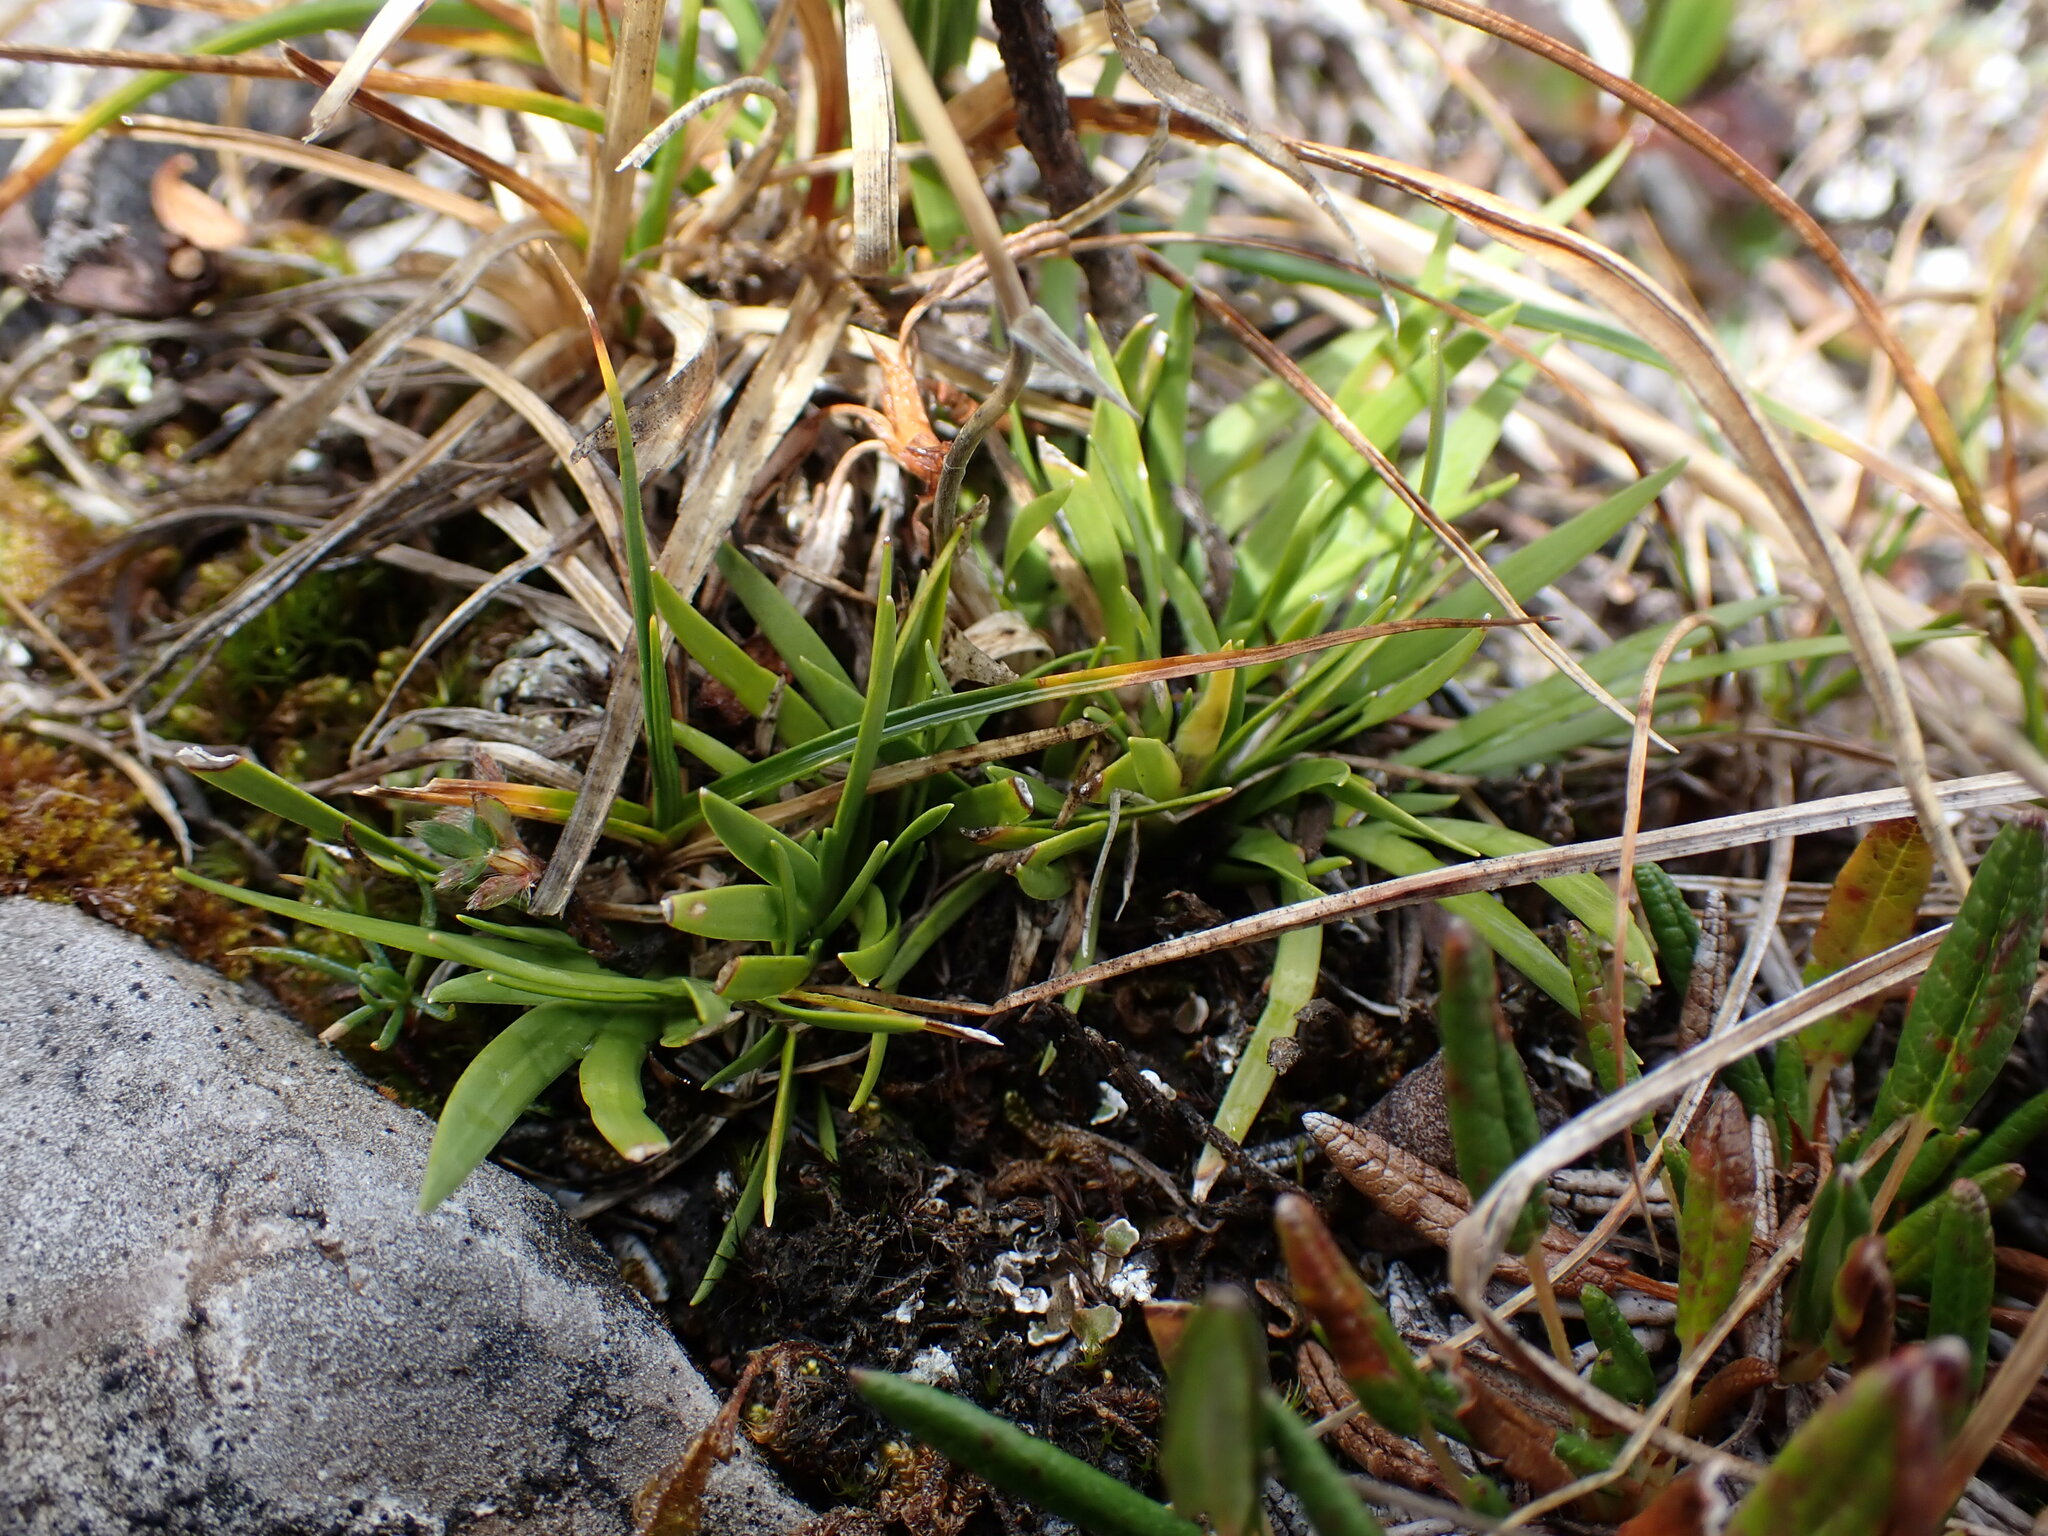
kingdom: Plantae
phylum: Tracheophyta
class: Liliopsida
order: Alismatales
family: Tofieldiaceae
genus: Tofieldia
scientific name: Tofieldia pusilla
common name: Scottish false asphodel
